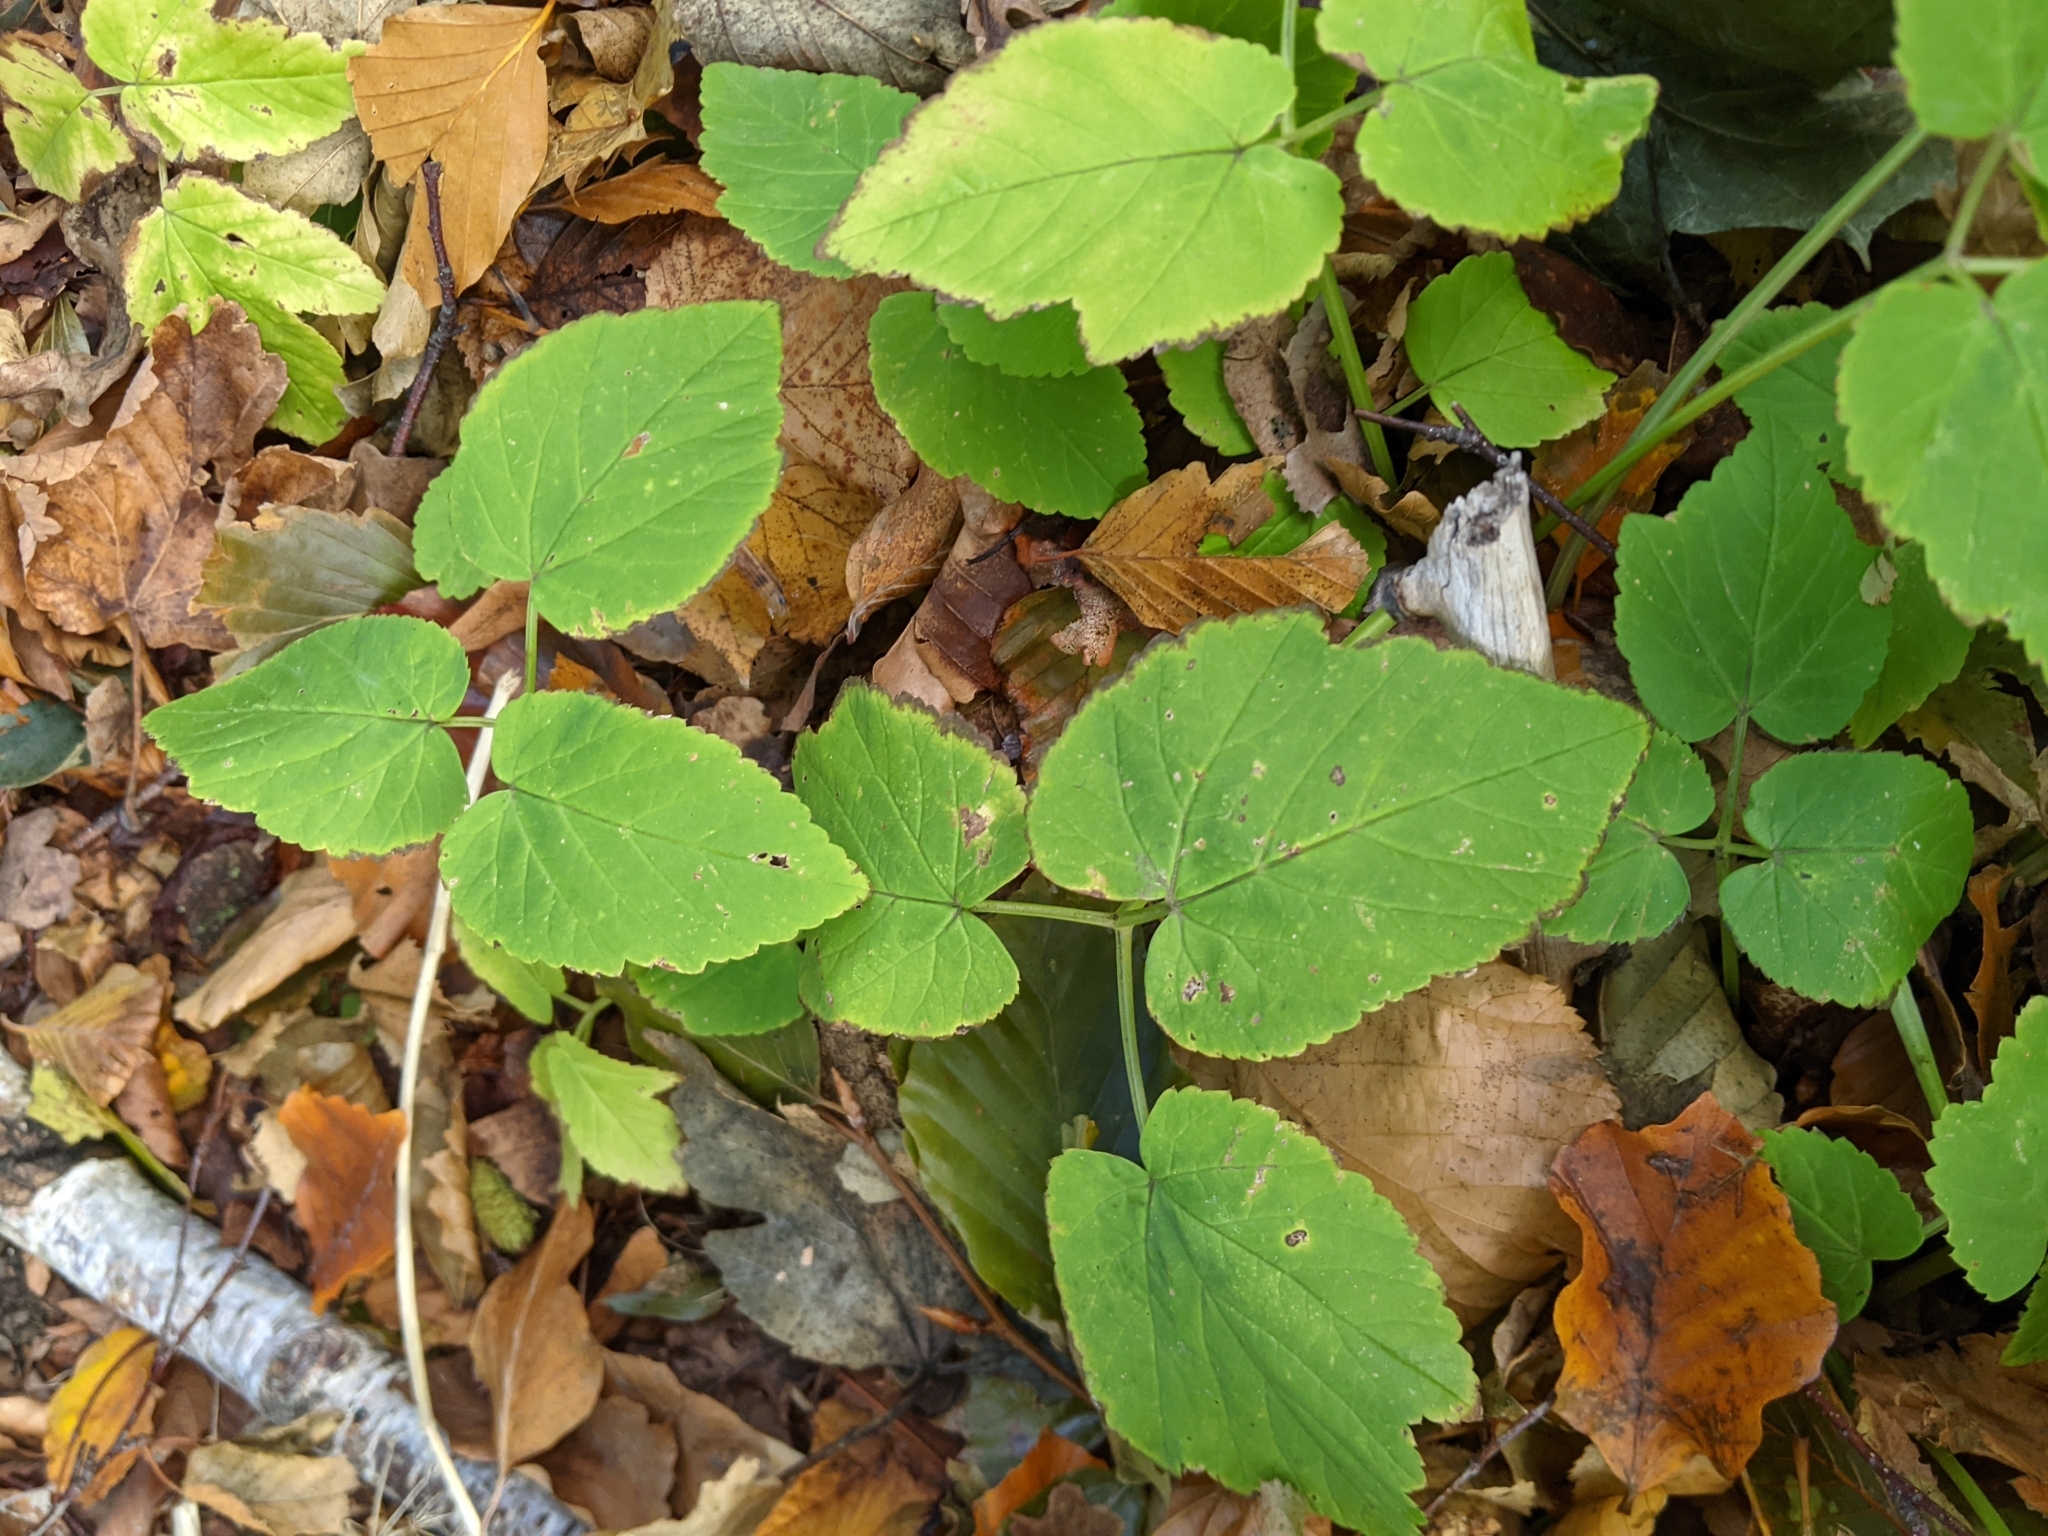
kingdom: Plantae
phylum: Tracheophyta
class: Magnoliopsida
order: Apiales
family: Apiaceae
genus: Aegopodium
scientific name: Aegopodium podagraria
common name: Ground-elder
